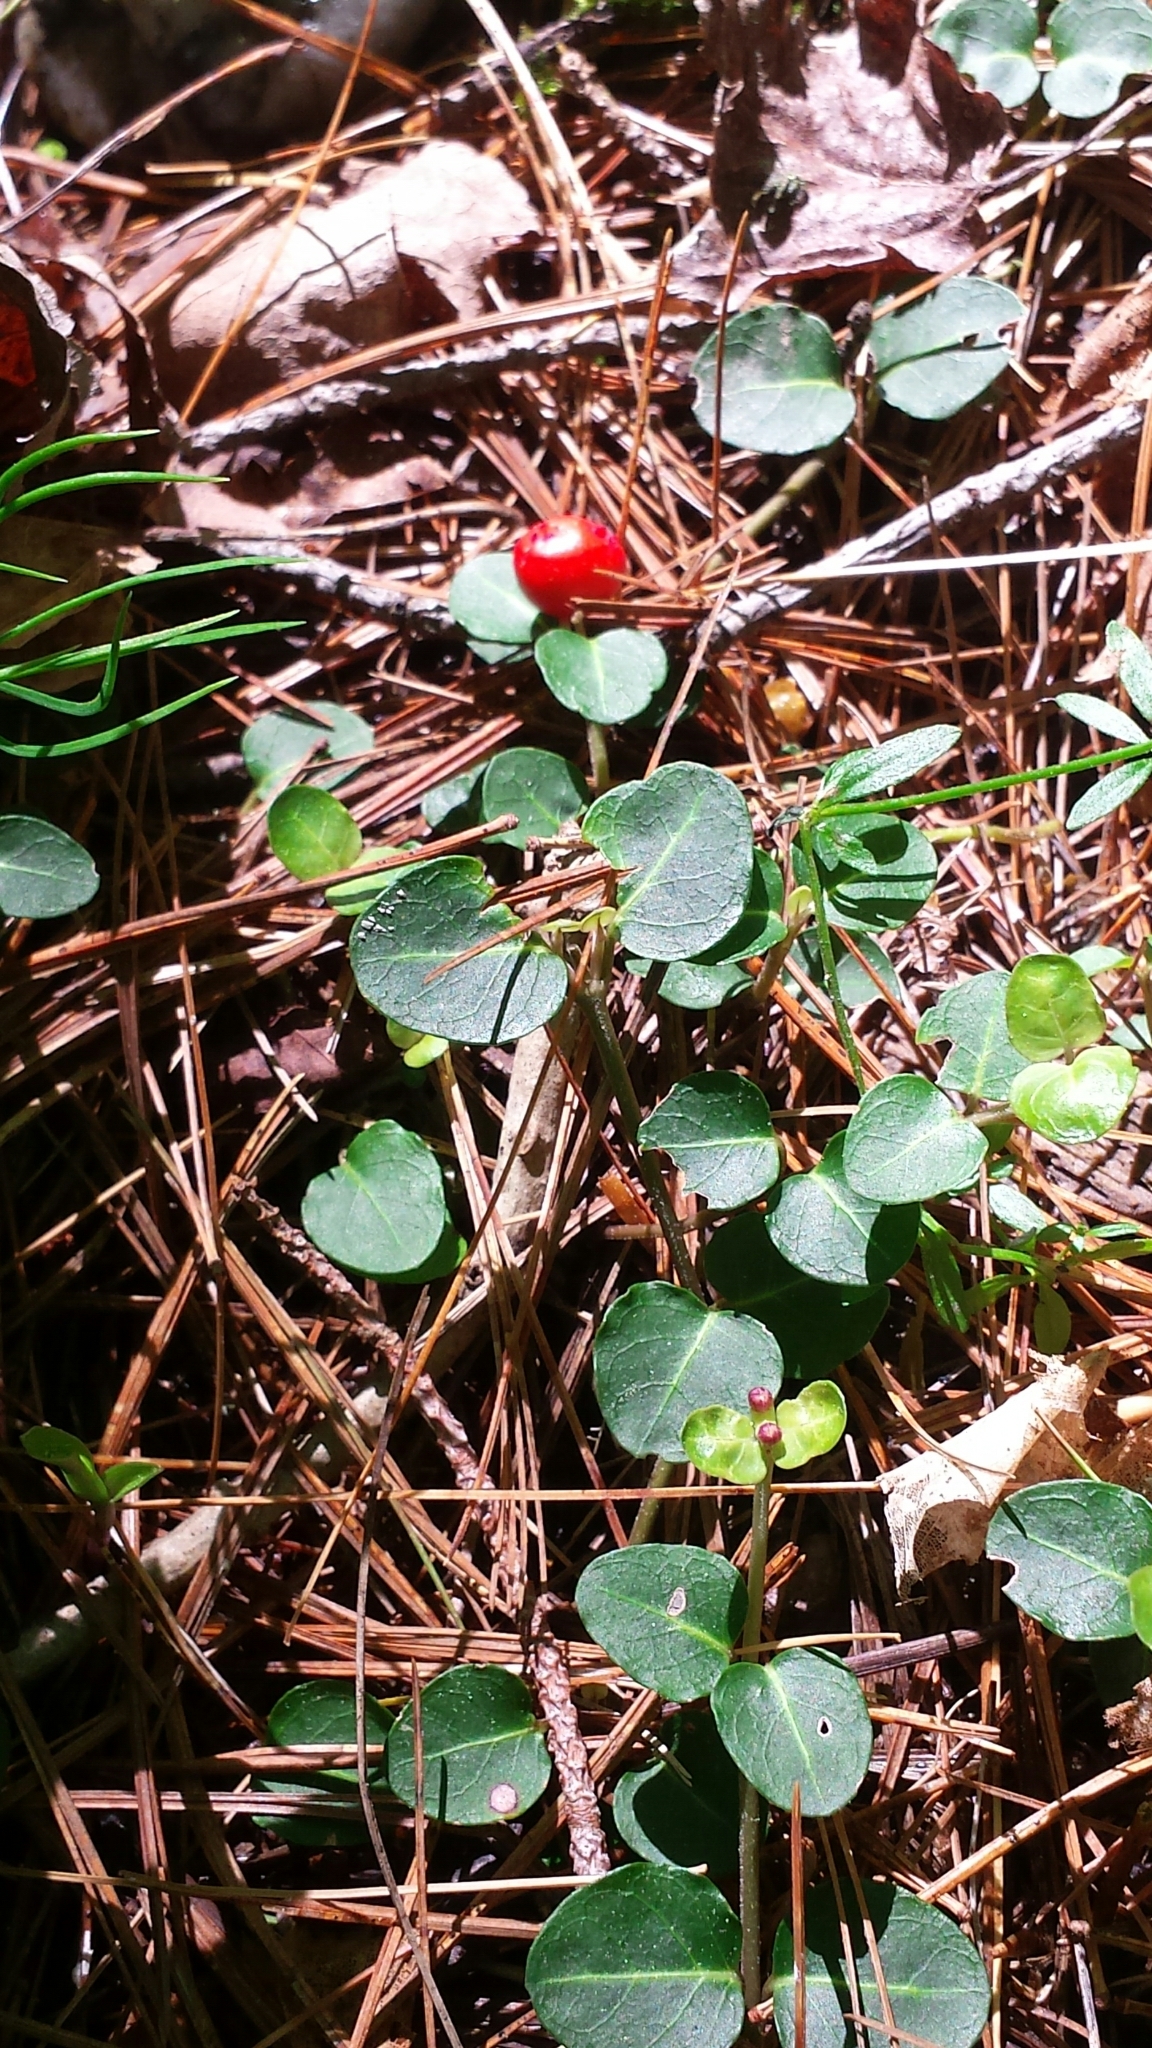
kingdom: Plantae
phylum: Tracheophyta
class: Magnoliopsida
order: Gentianales
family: Rubiaceae
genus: Mitchella
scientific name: Mitchella repens
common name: Partridge-berry
